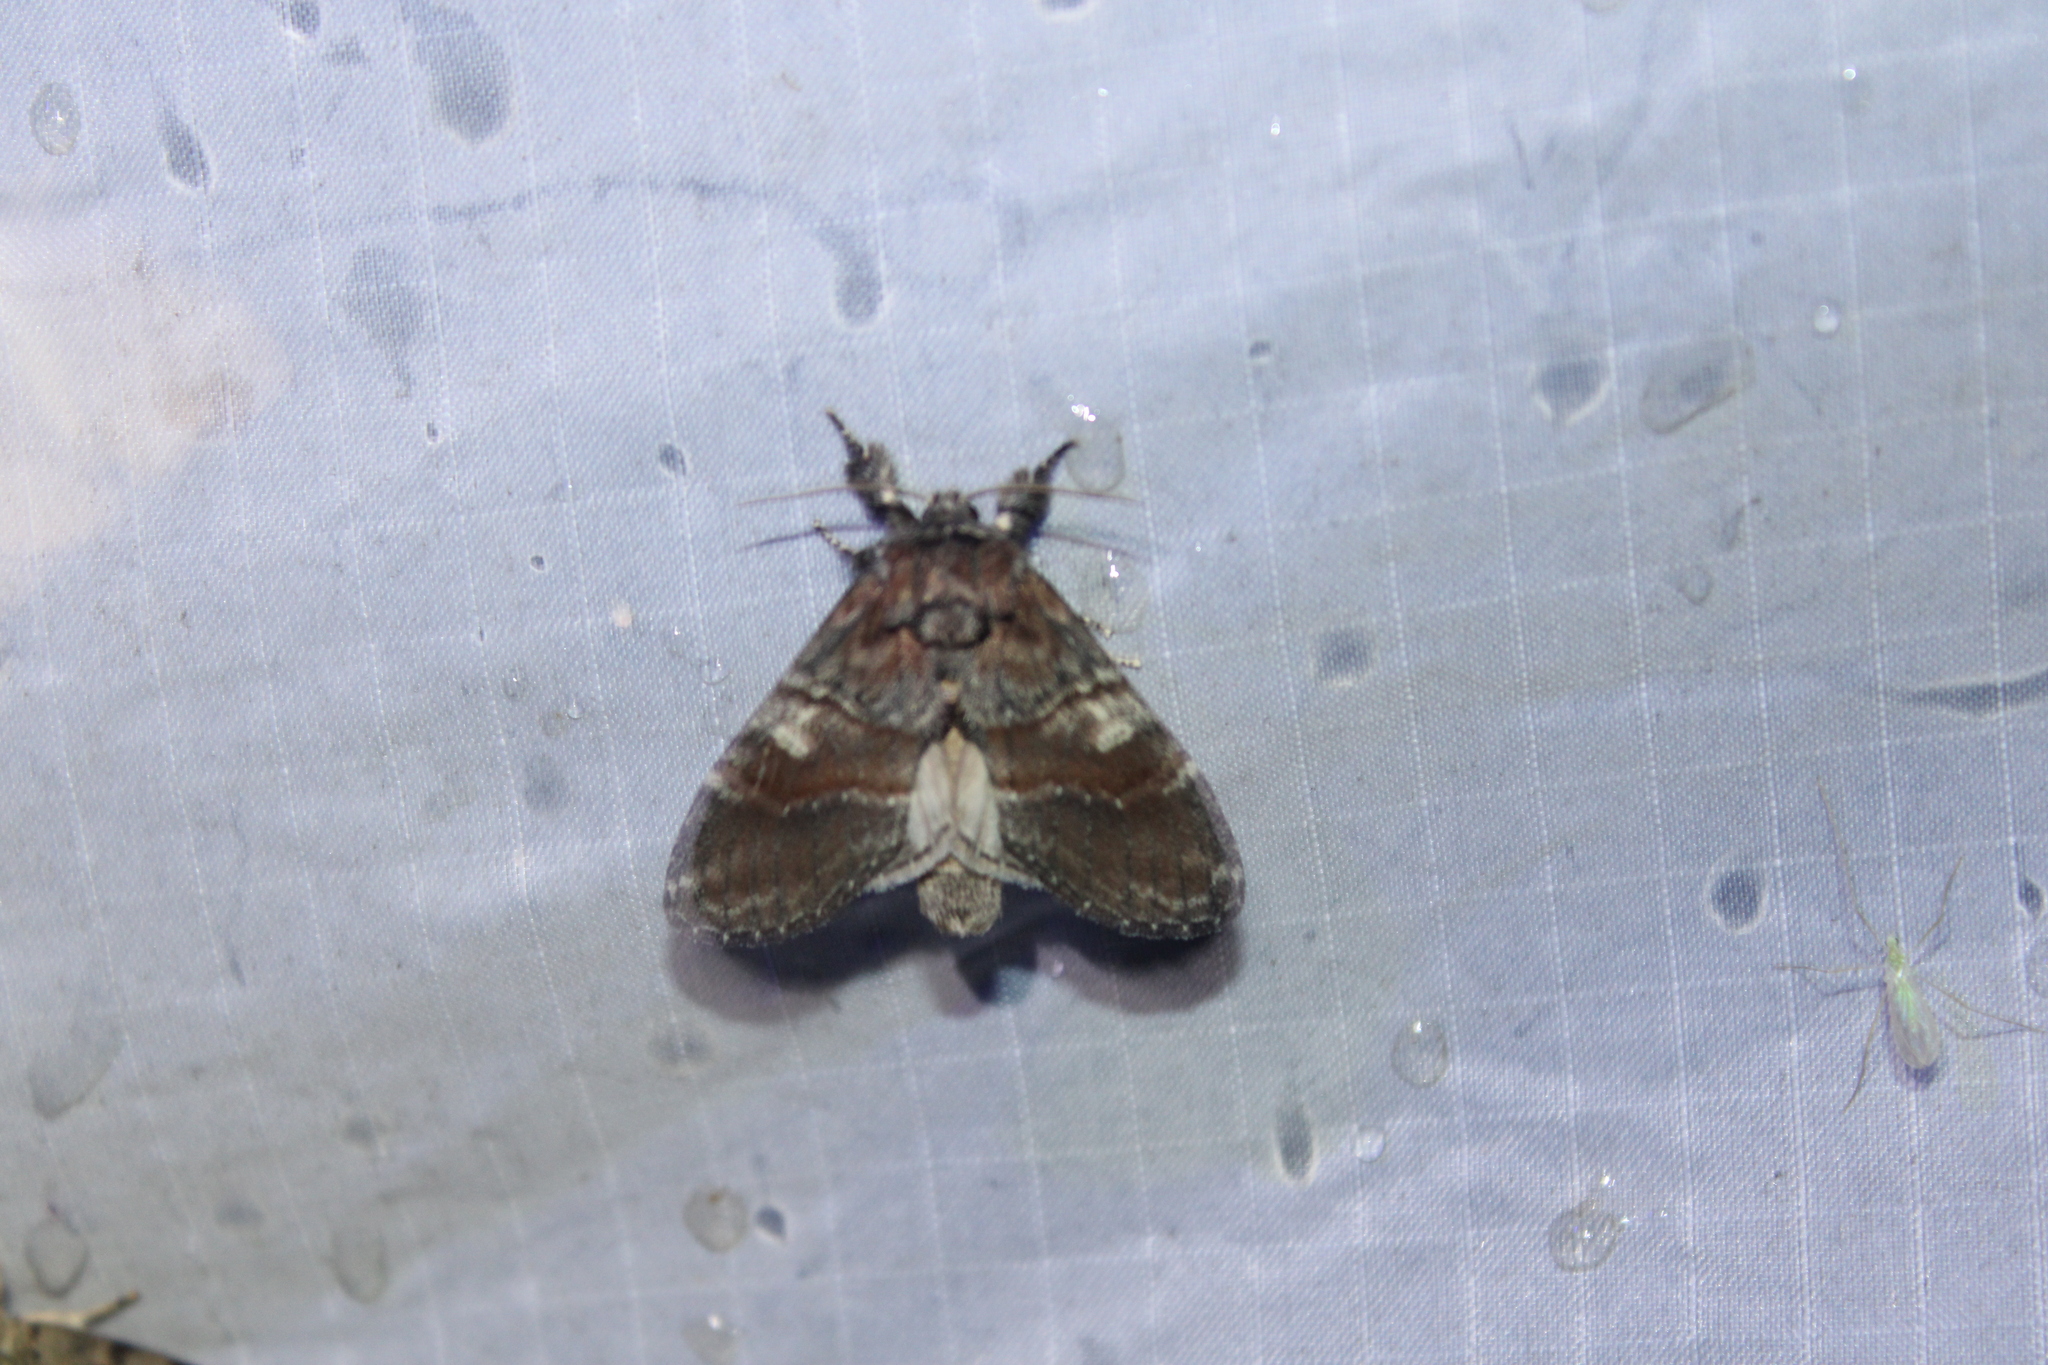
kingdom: Animalia
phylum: Arthropoda
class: Insecta
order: Lepidoptera
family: Notodontidae
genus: Peridea
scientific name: Peridea ferruginea
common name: Chocolate prominent
